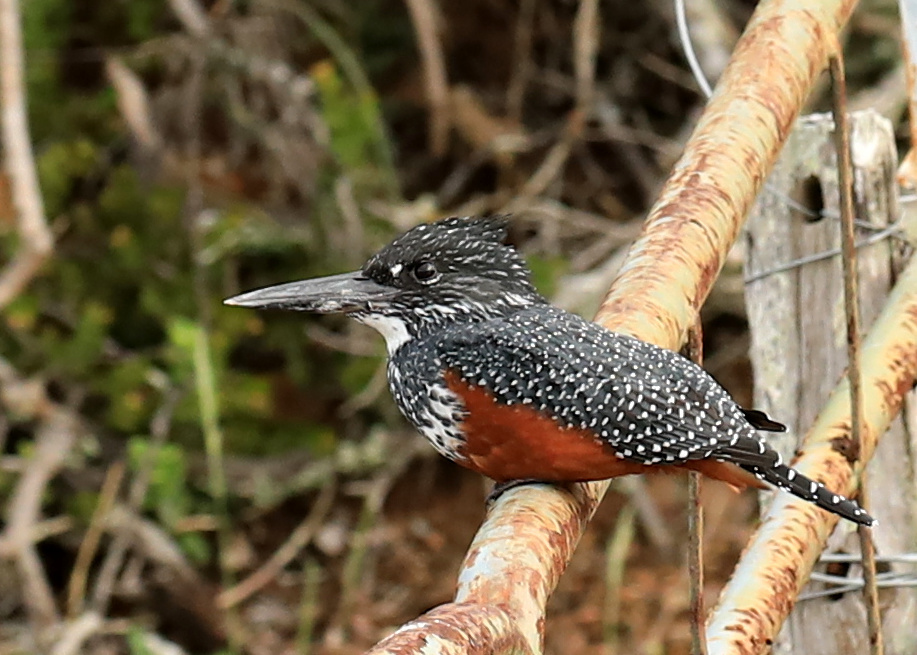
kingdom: Animalia
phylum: Chordata
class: Aves
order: Coraciiformes
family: Alcedinidae
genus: Megaceryle
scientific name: Megaceryle maxima
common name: Giant kingfisher
